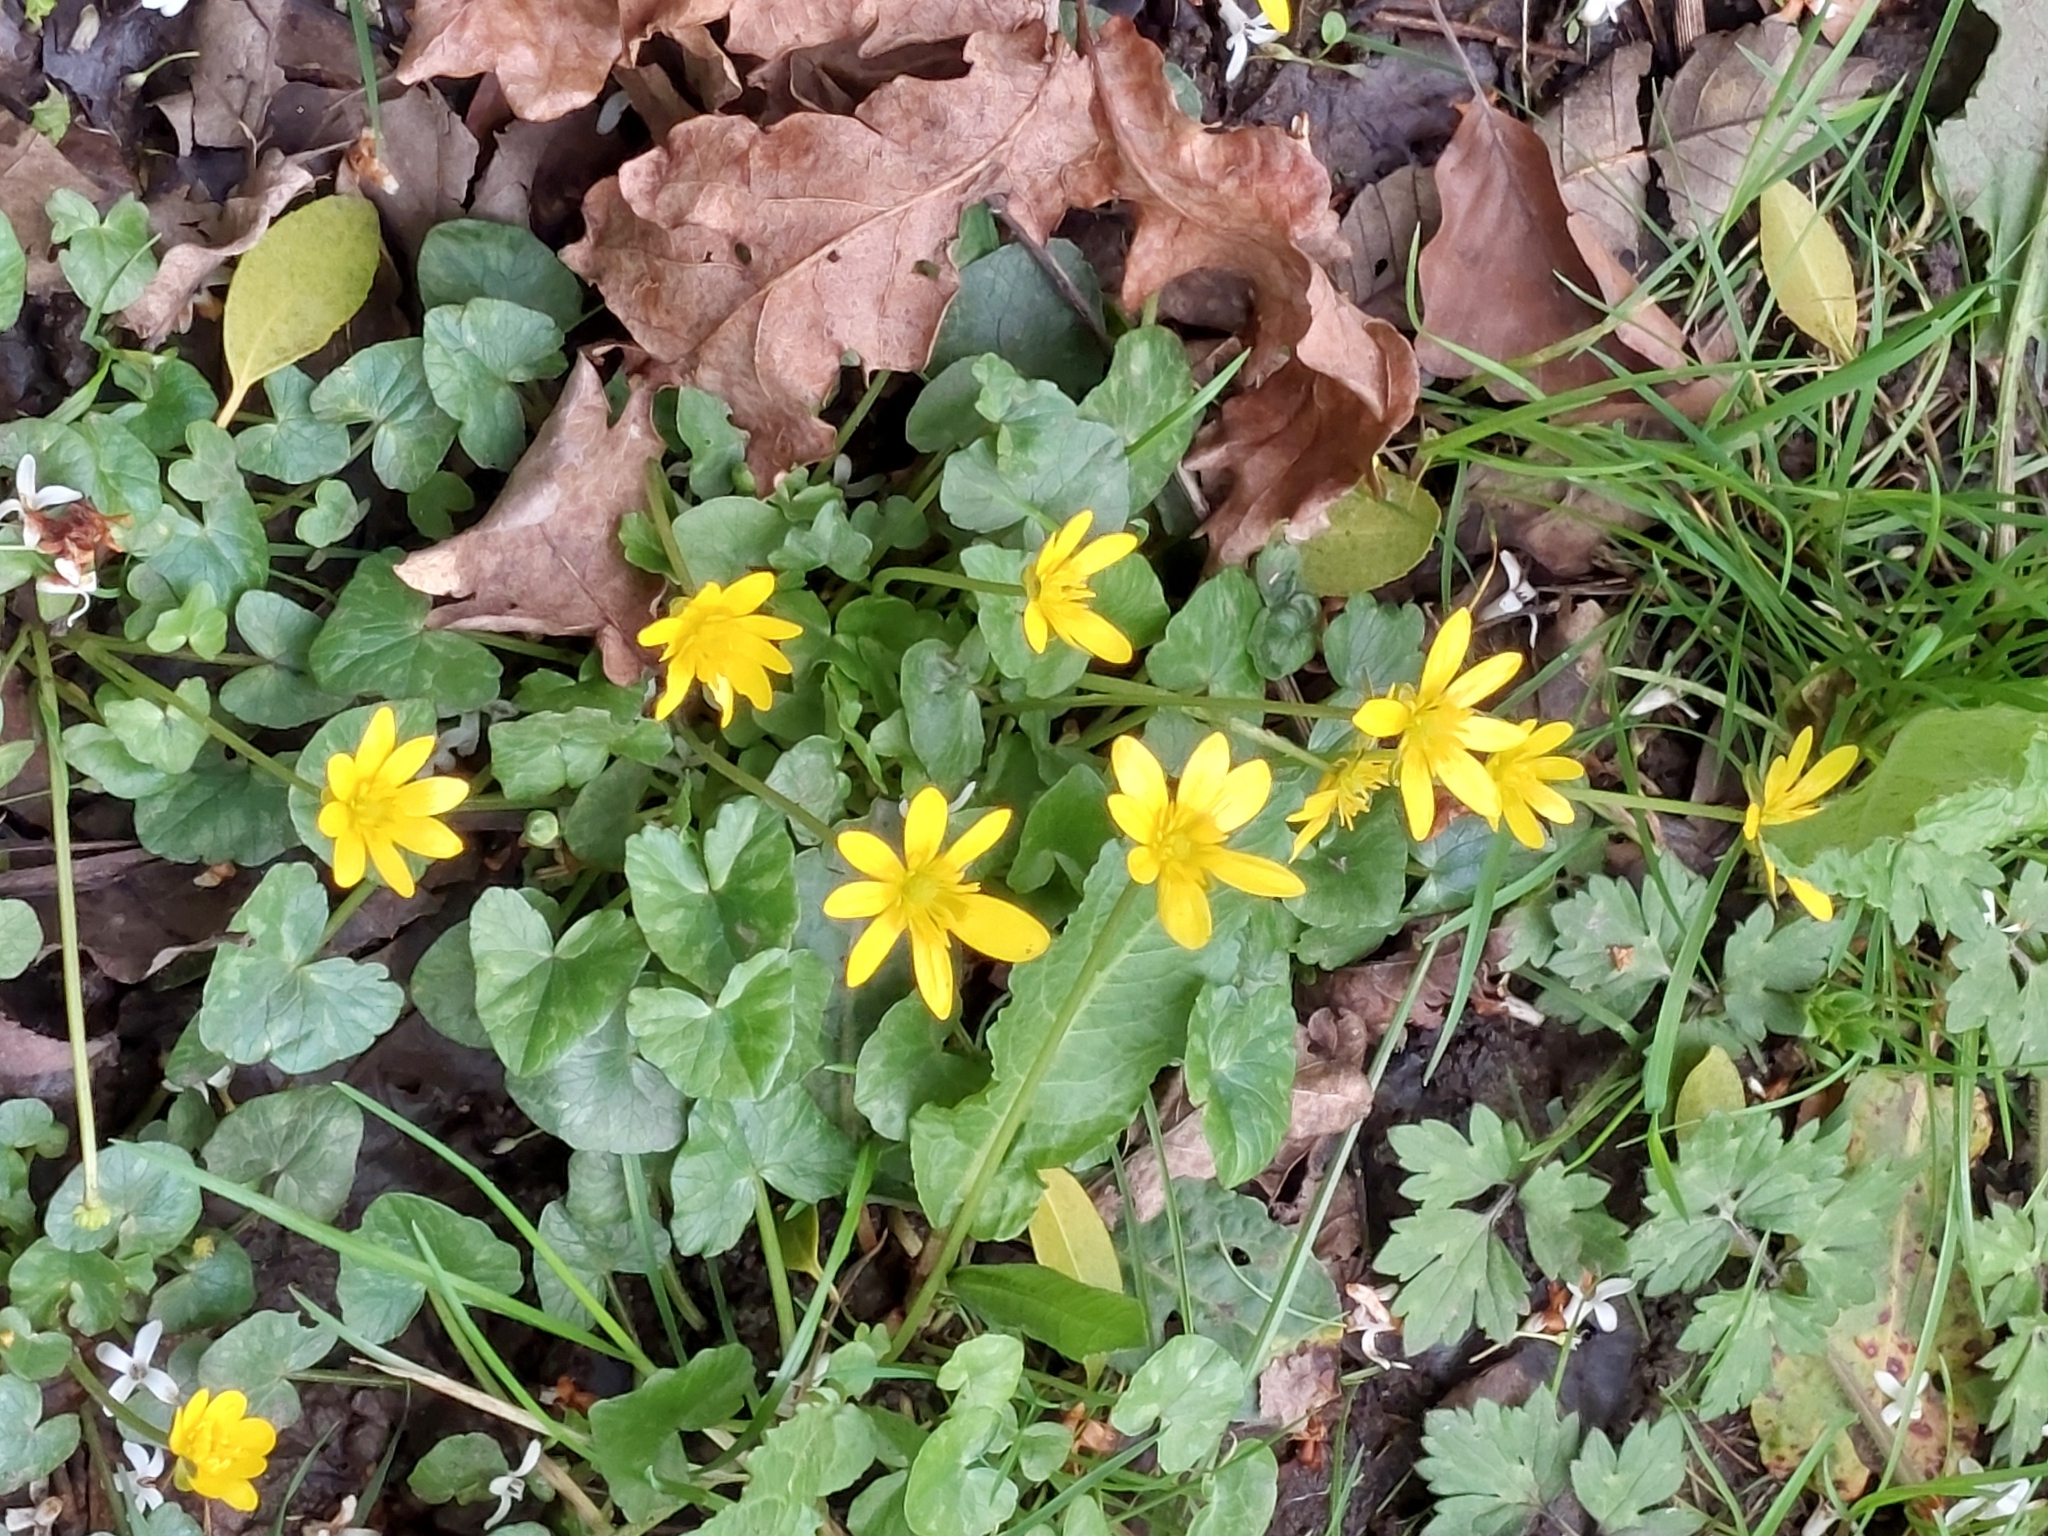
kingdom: Plantae
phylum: Tracheophyta
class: Magnoliopsida
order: Ranunculales
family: Ranunculaceae
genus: Ficaria
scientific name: Ficaria verna
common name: Lesser celandine
